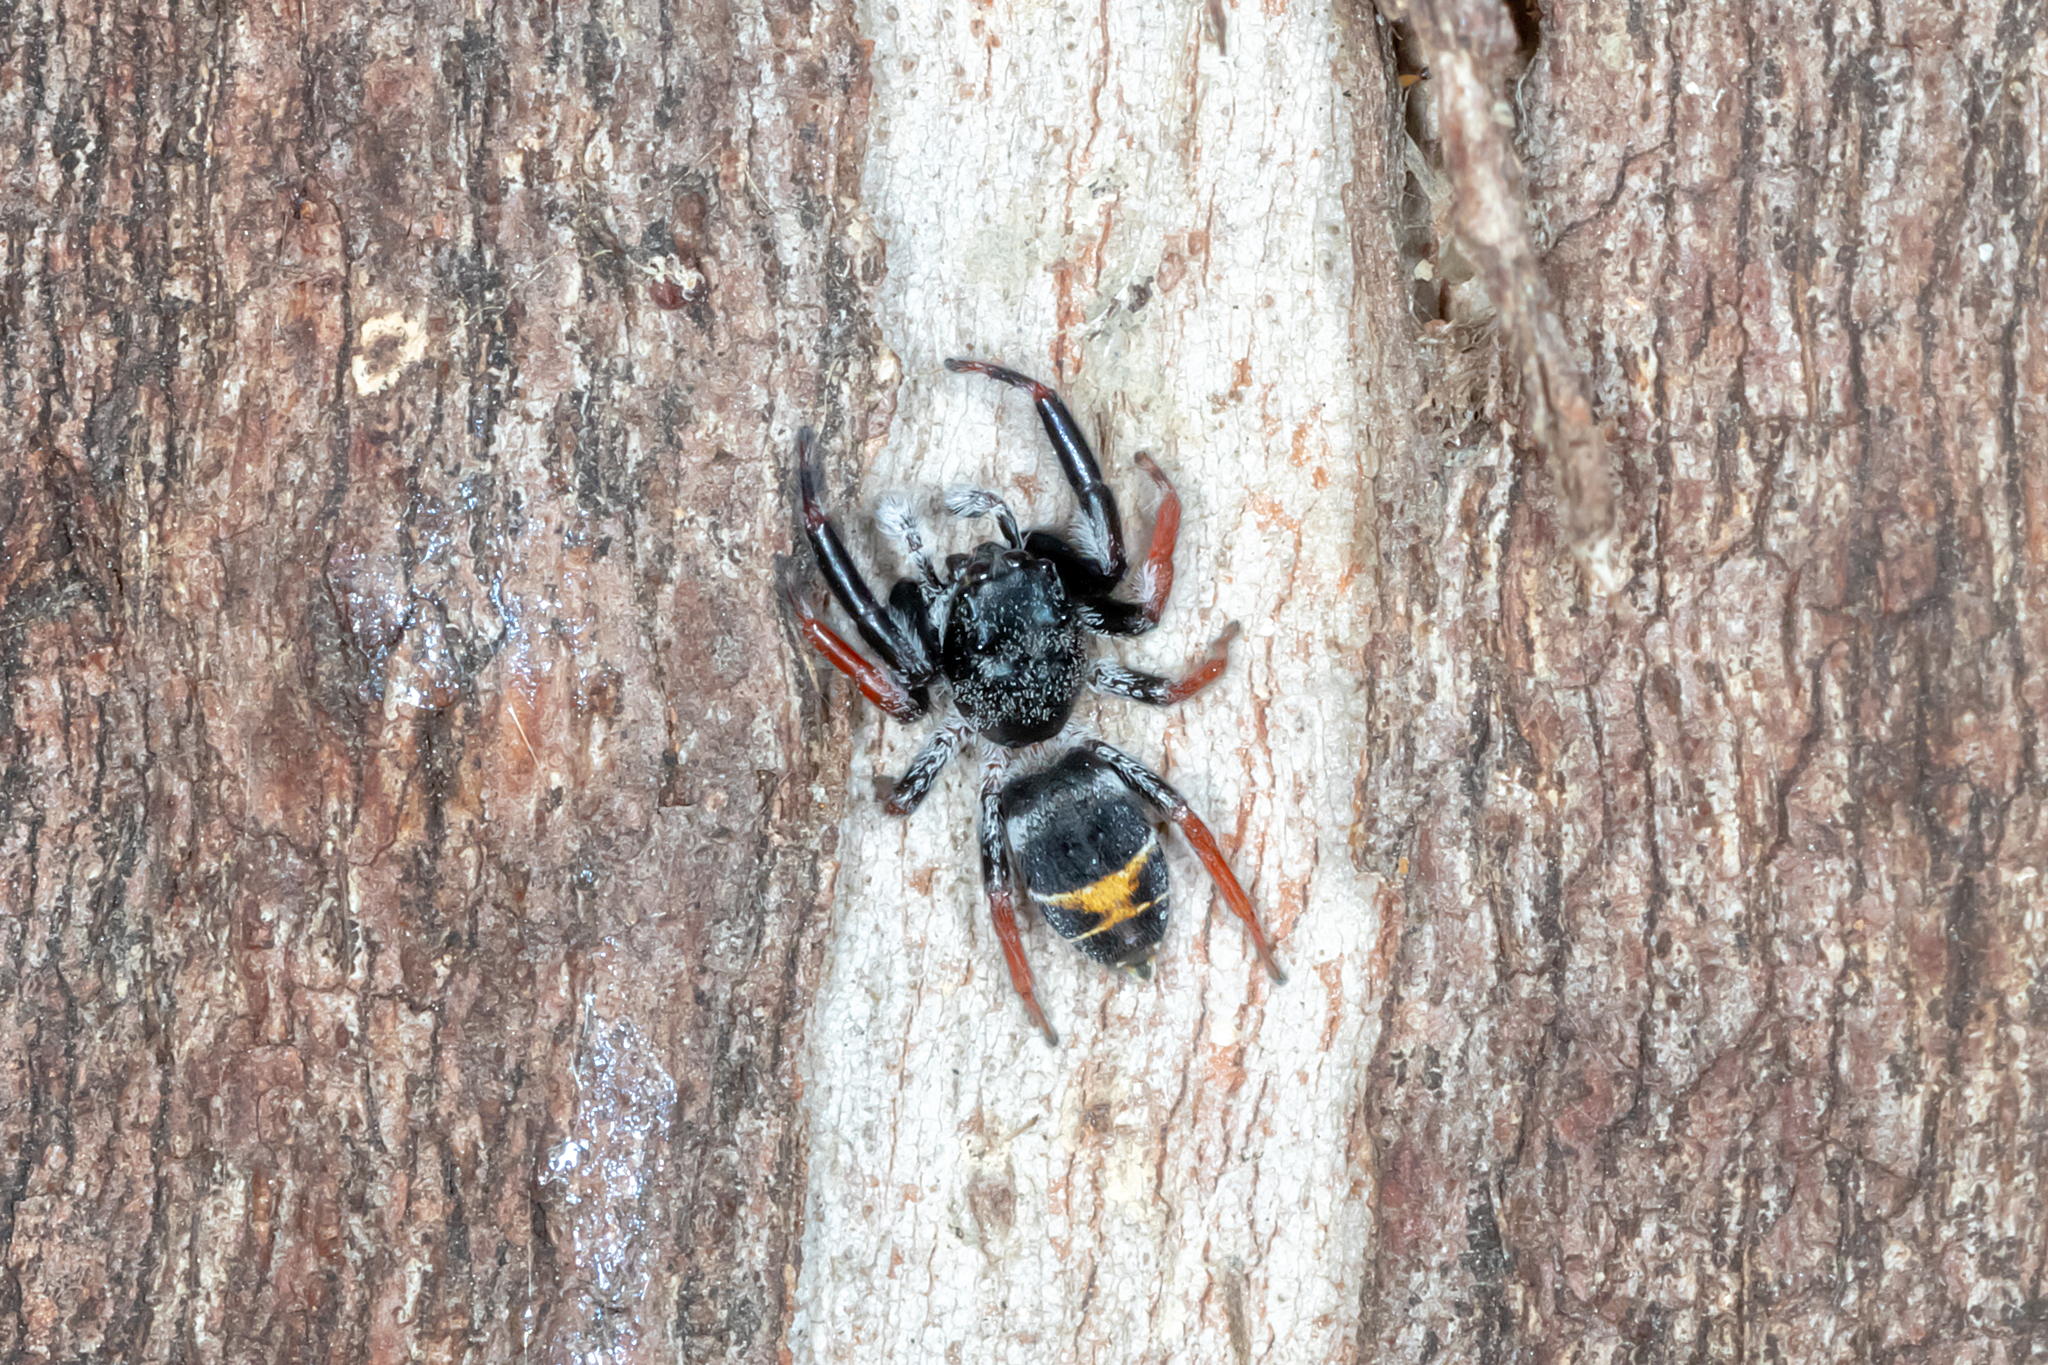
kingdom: Animalia
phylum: Arthropoda
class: Arachnida
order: Araneae
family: Salticidae
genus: Apricia
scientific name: Apricia jovialis
